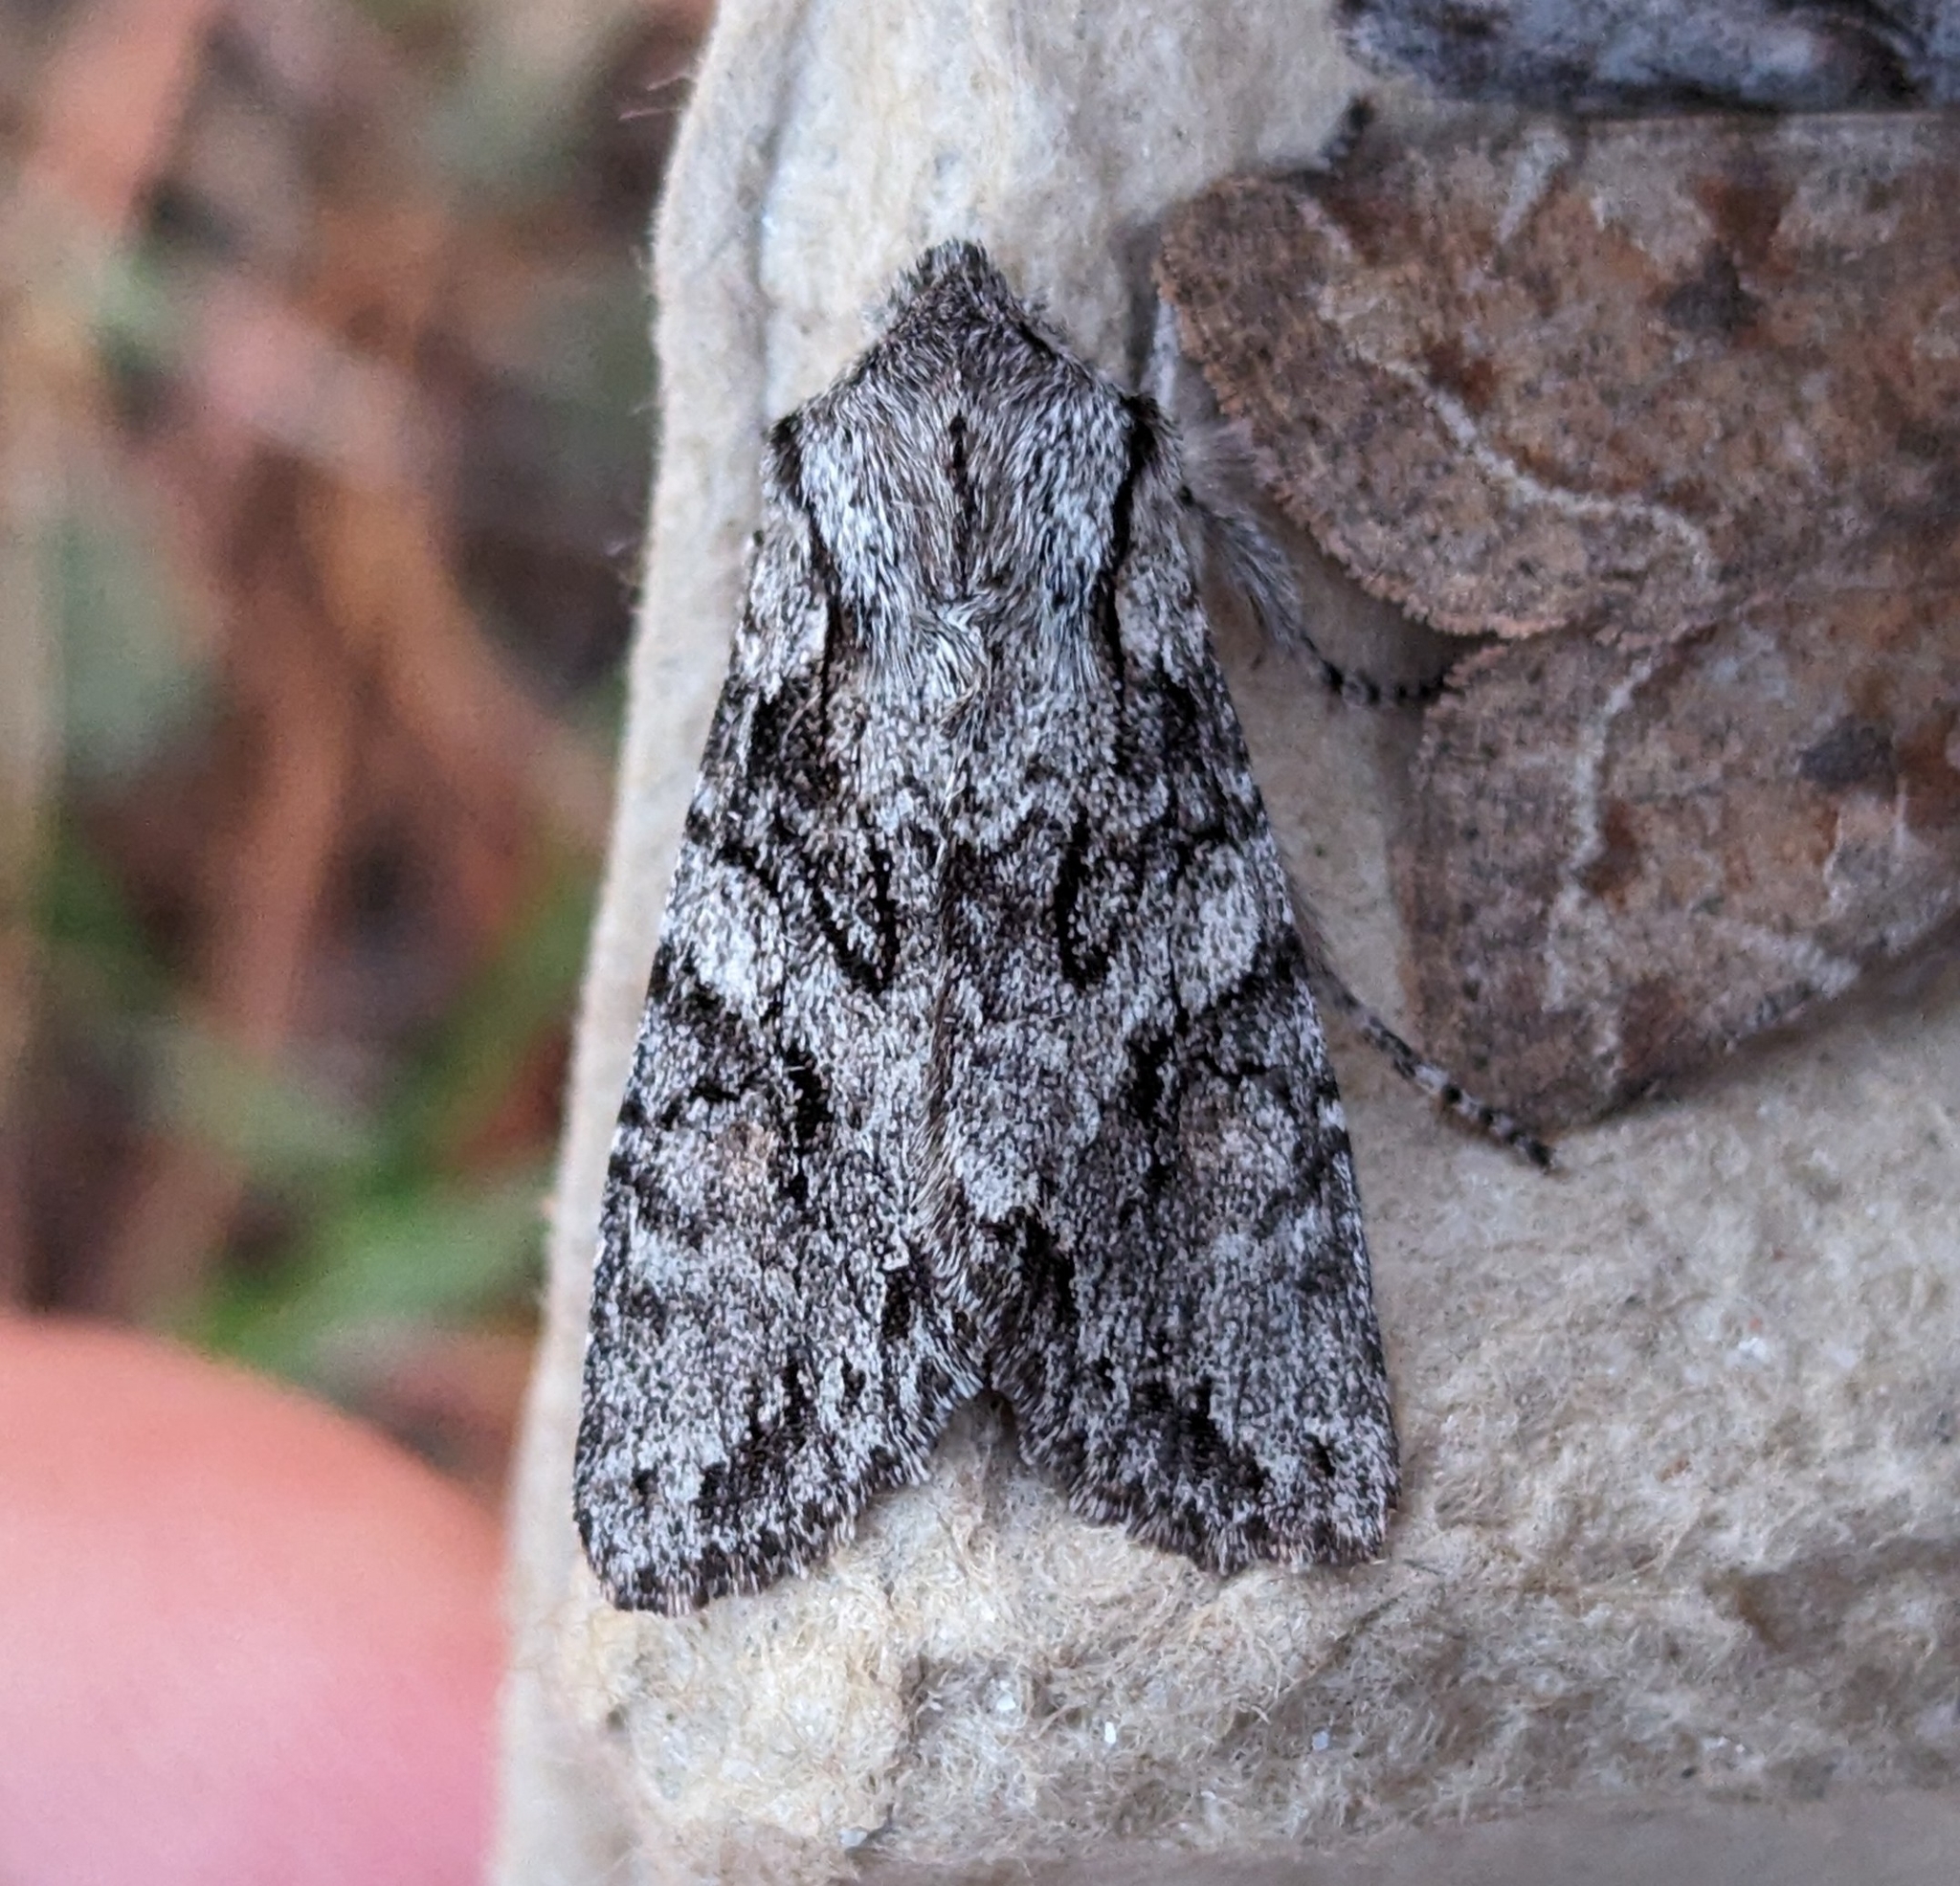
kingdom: Animalia
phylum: Arthropoda
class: Insecta
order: Lepidoptera
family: Noctuidae
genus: Egira
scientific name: Egira simplex
